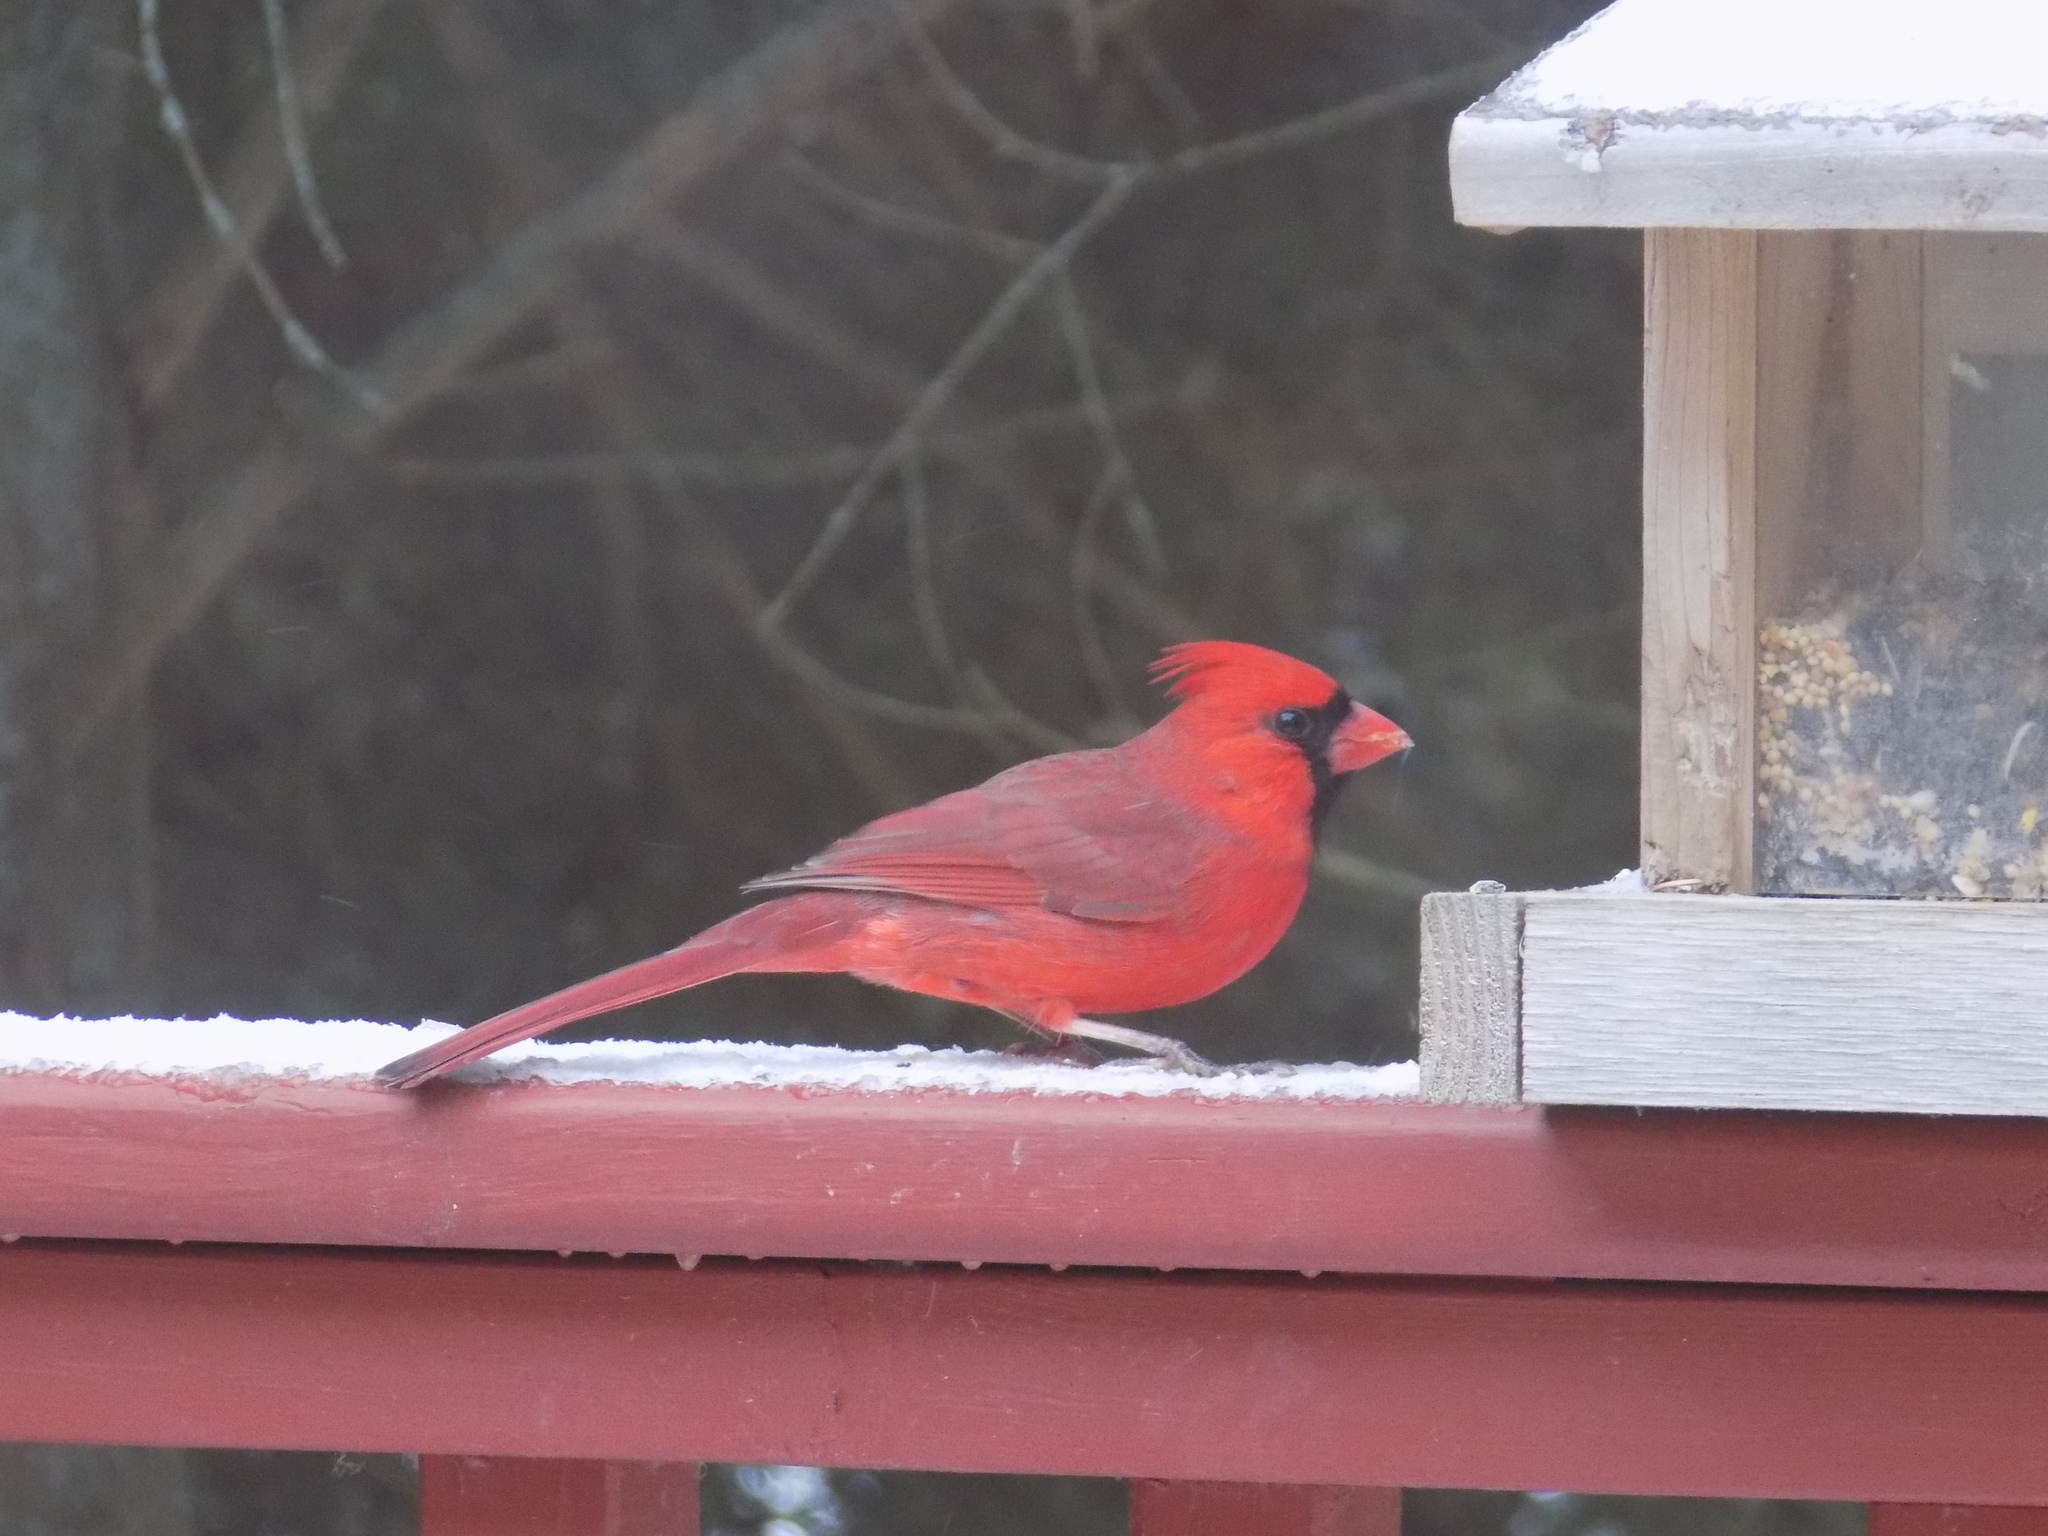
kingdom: Animalia
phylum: Chordata
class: Aves
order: Passeriformes
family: Cardinalidae
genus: Cardinalis
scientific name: Cardinalis cardinalis
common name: Northern cardinal
